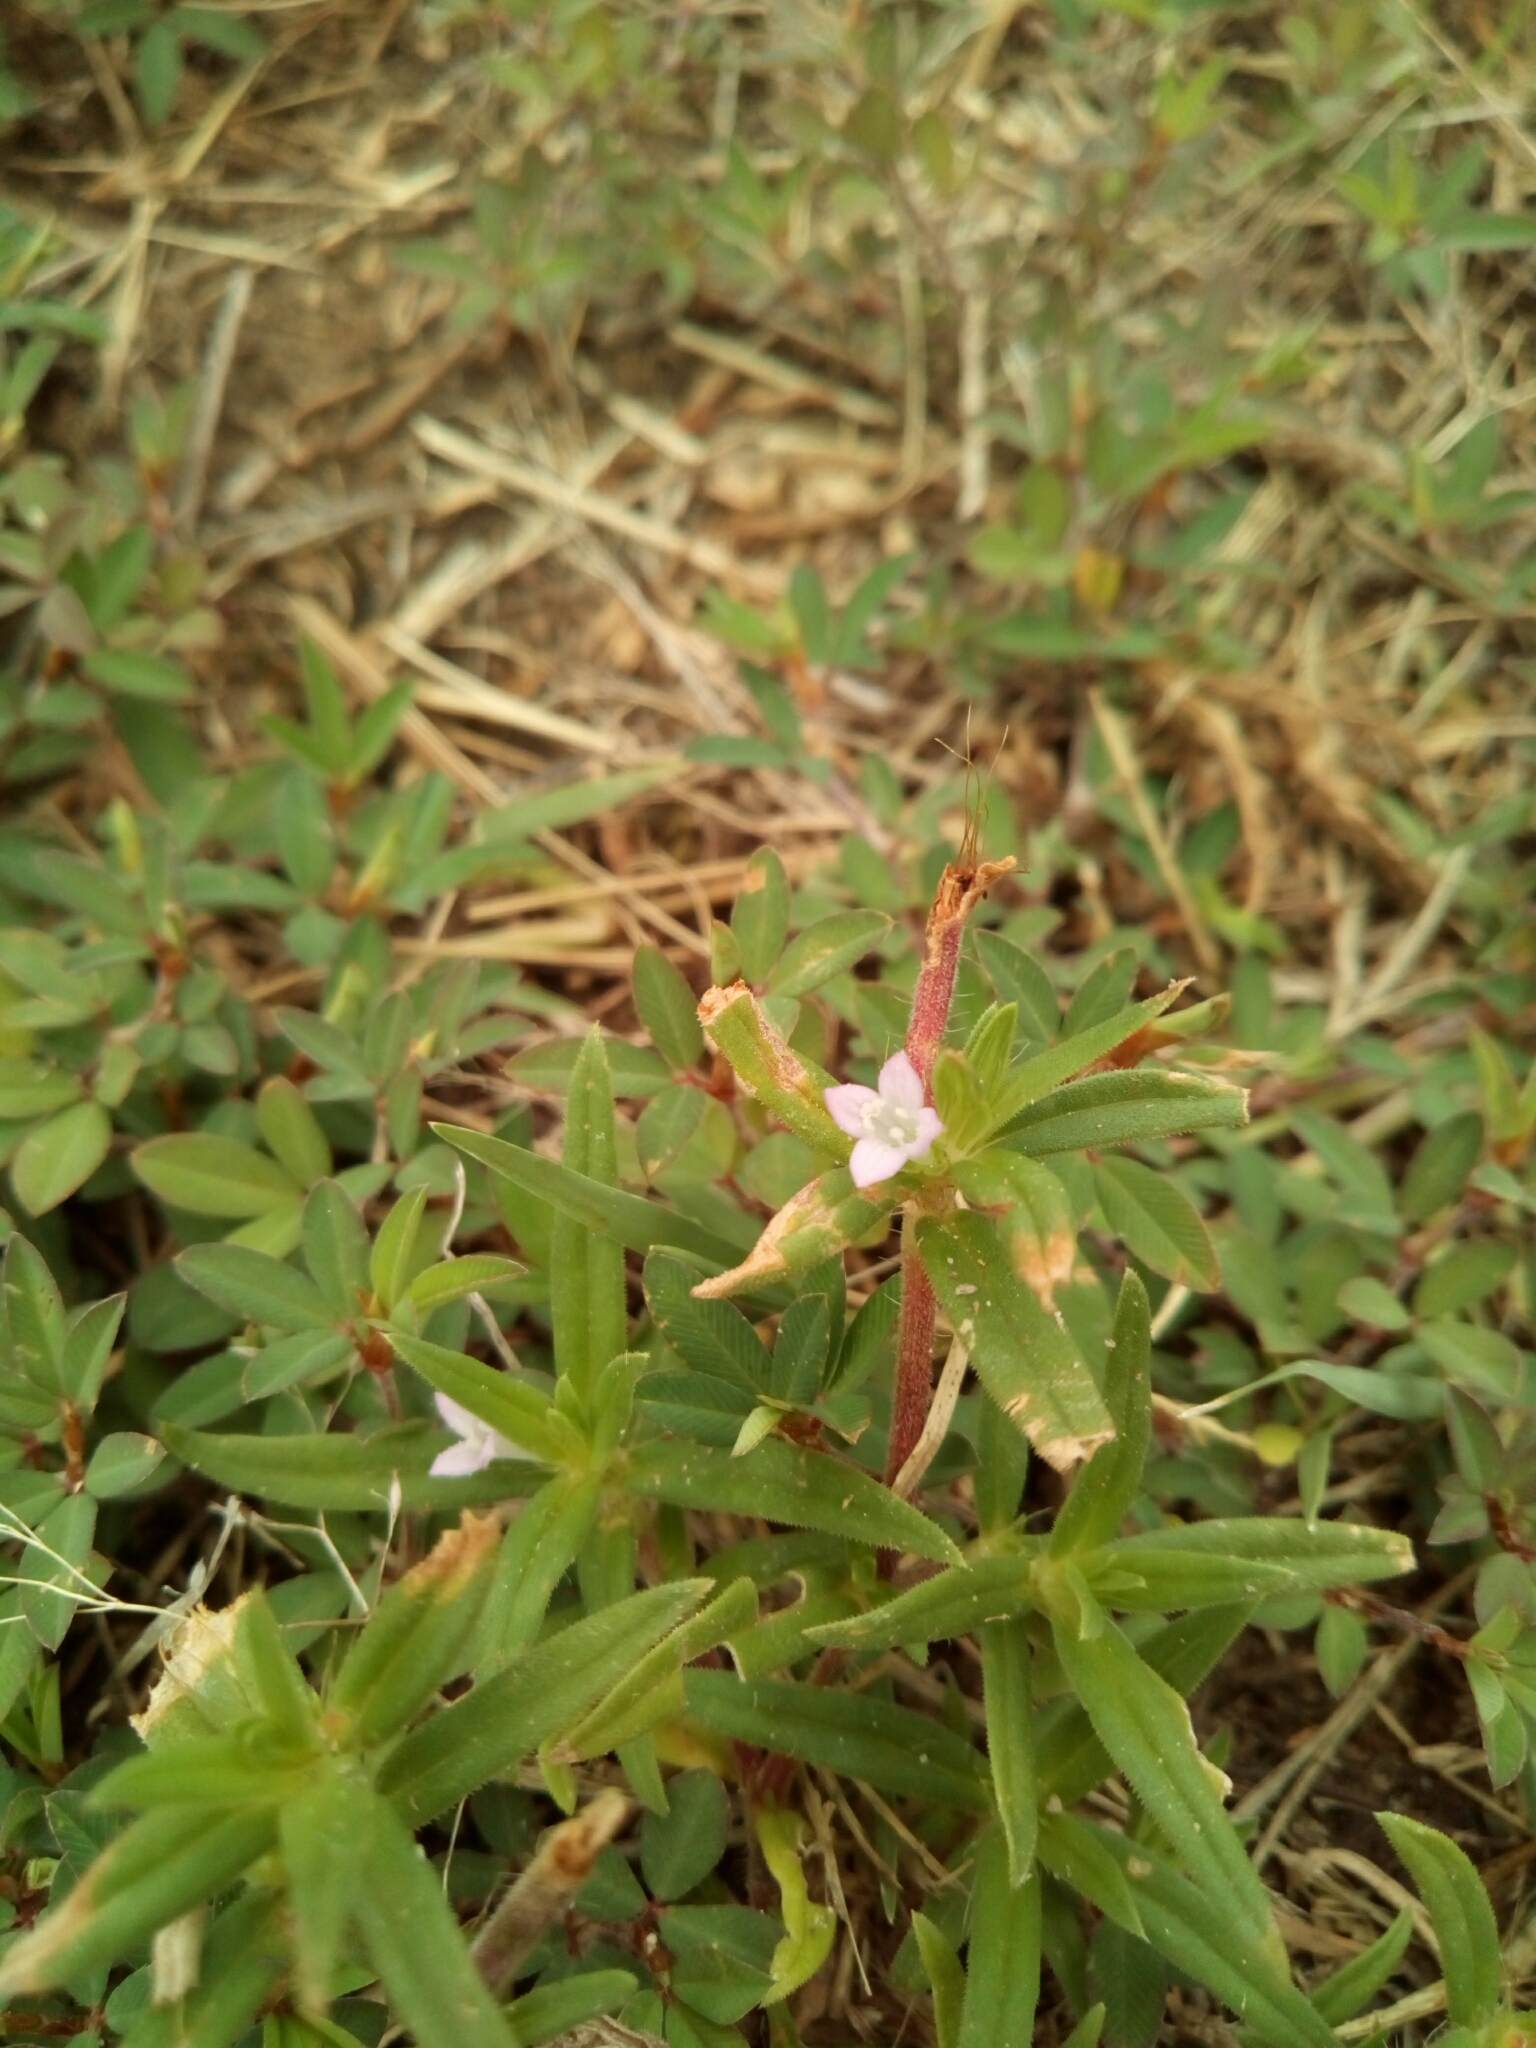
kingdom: Plantae
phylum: Tracheophyta
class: Magnoliopsida
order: Gentianales
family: Rubiaceae
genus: Hexasepalum
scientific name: Hexasepalum teres
